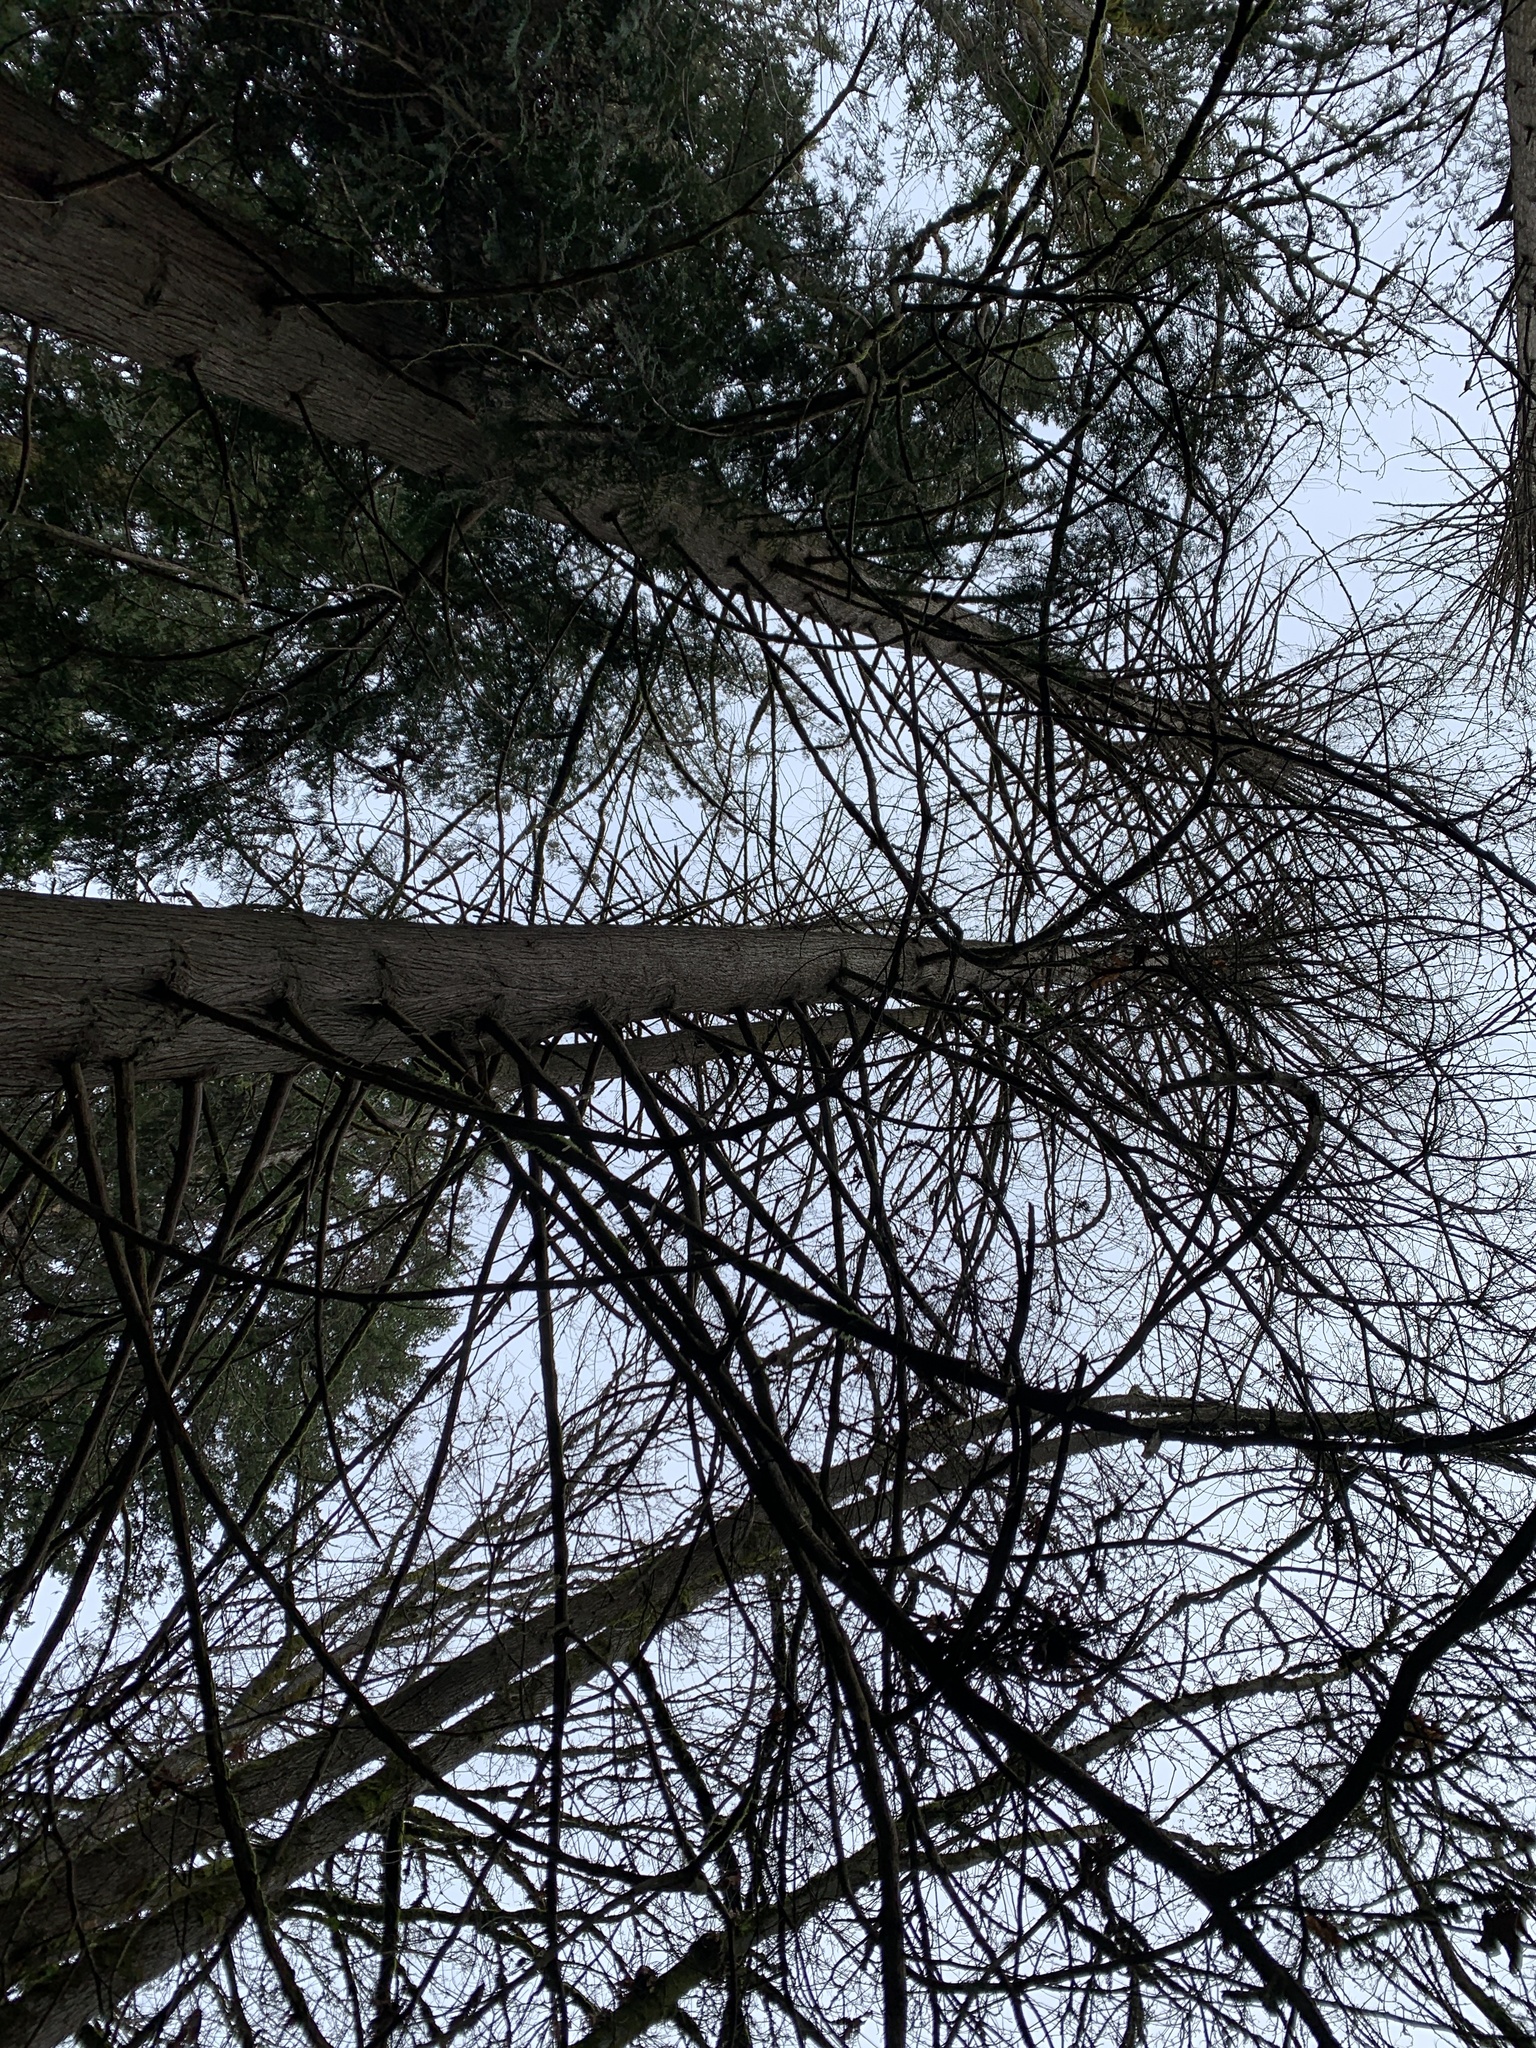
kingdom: Plantae
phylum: Tracheophyta
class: Pinopsida
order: Pinales
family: Cupressaceae
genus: Thuja
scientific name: Thuja plicata
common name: Western red-cedar
